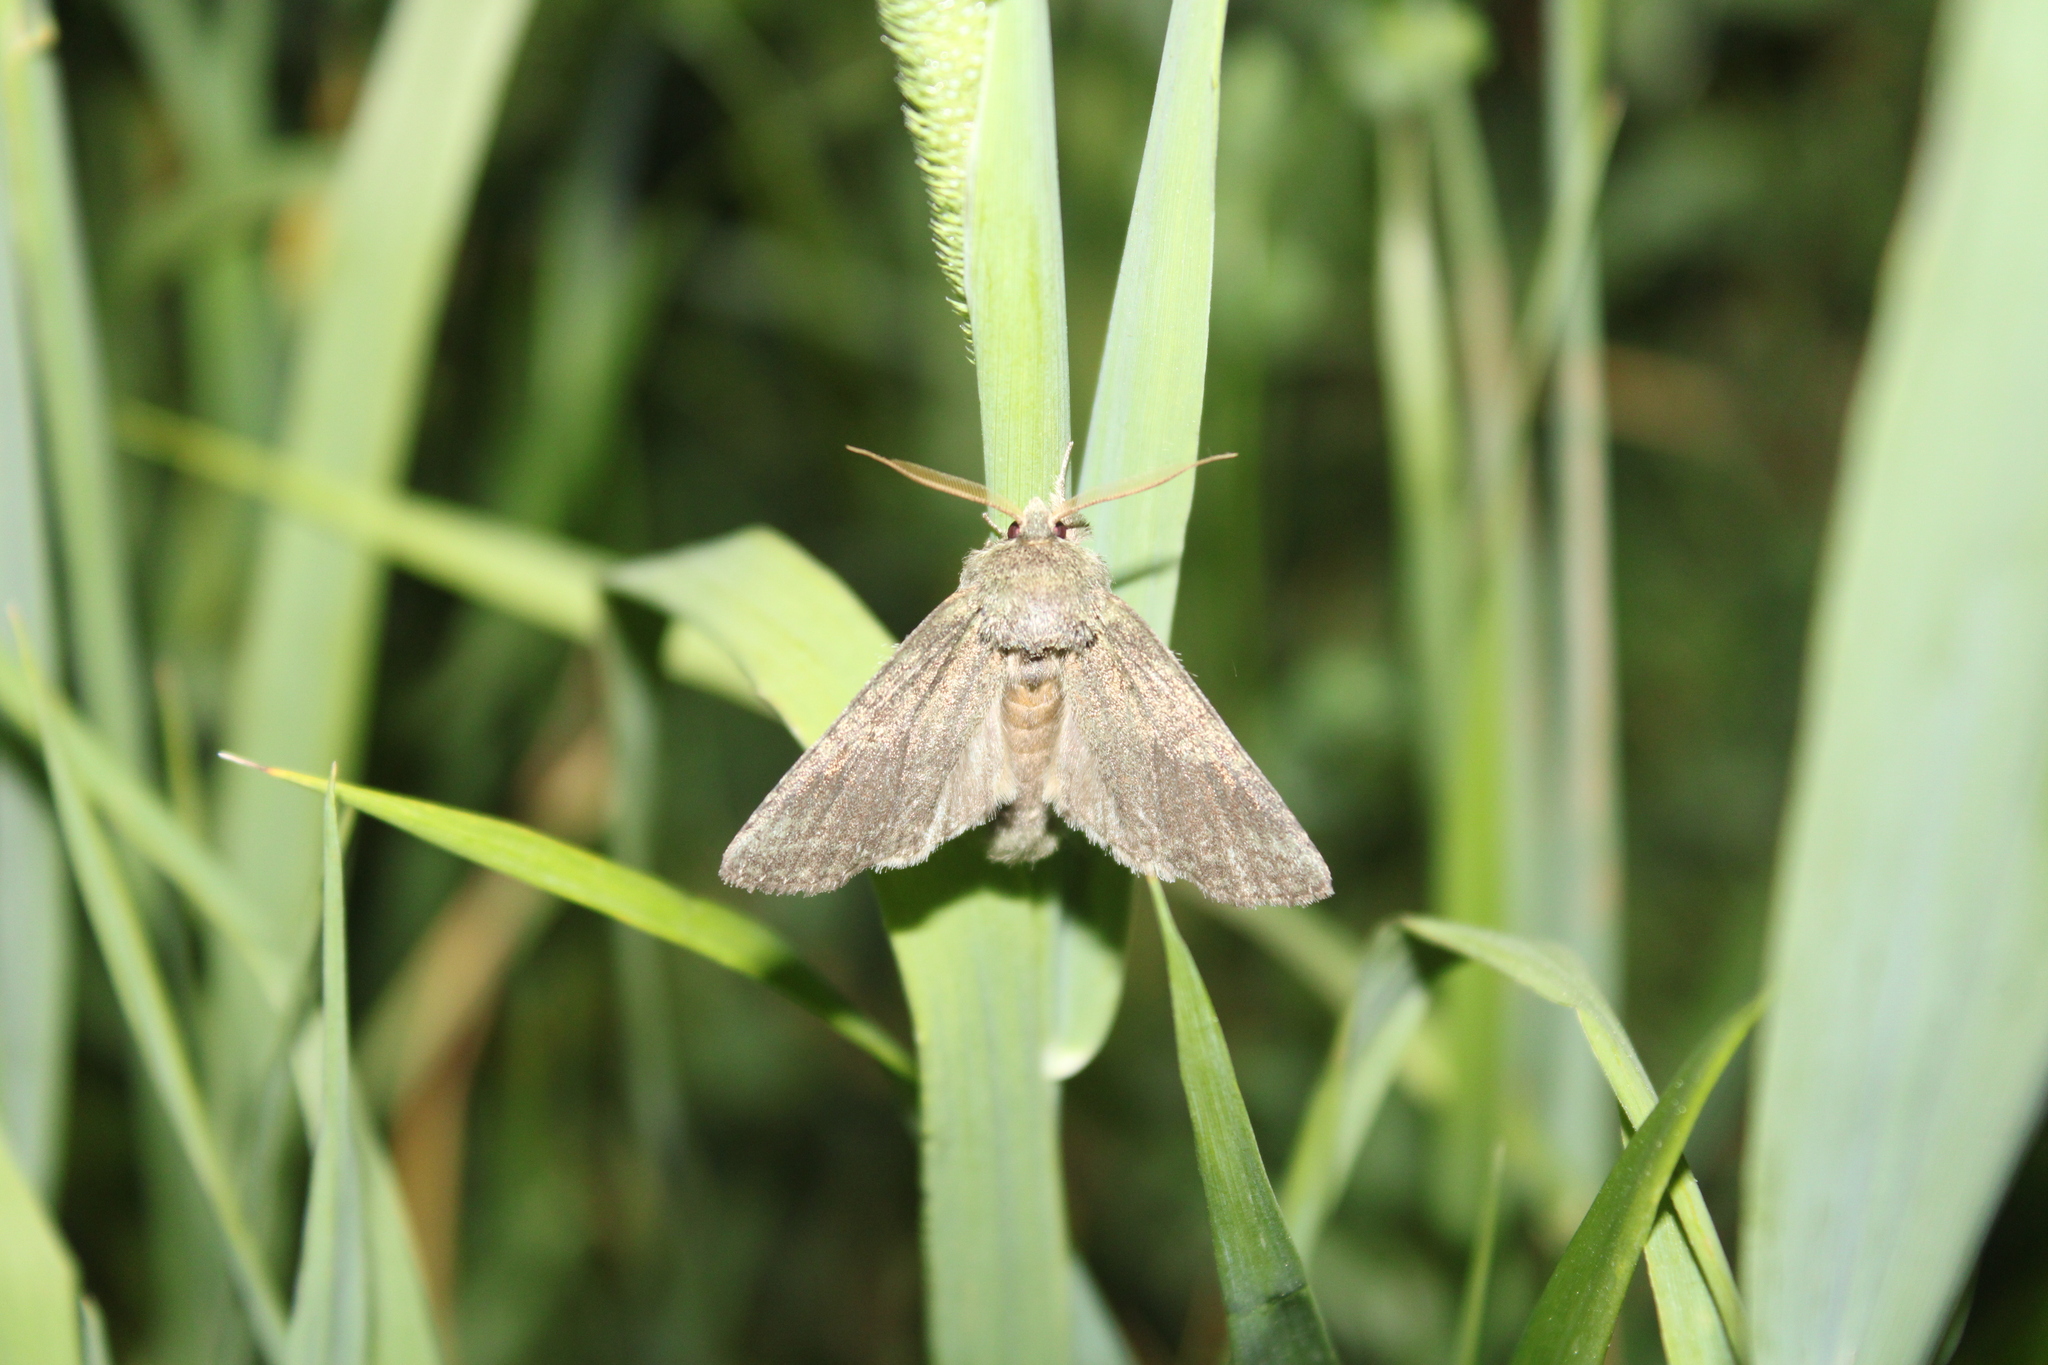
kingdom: Animalia
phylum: Arthropoda
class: Insecta
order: Lepidoptera
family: Notodontidae
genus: Disphragis
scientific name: Disphragis Cecrita guttivitta
